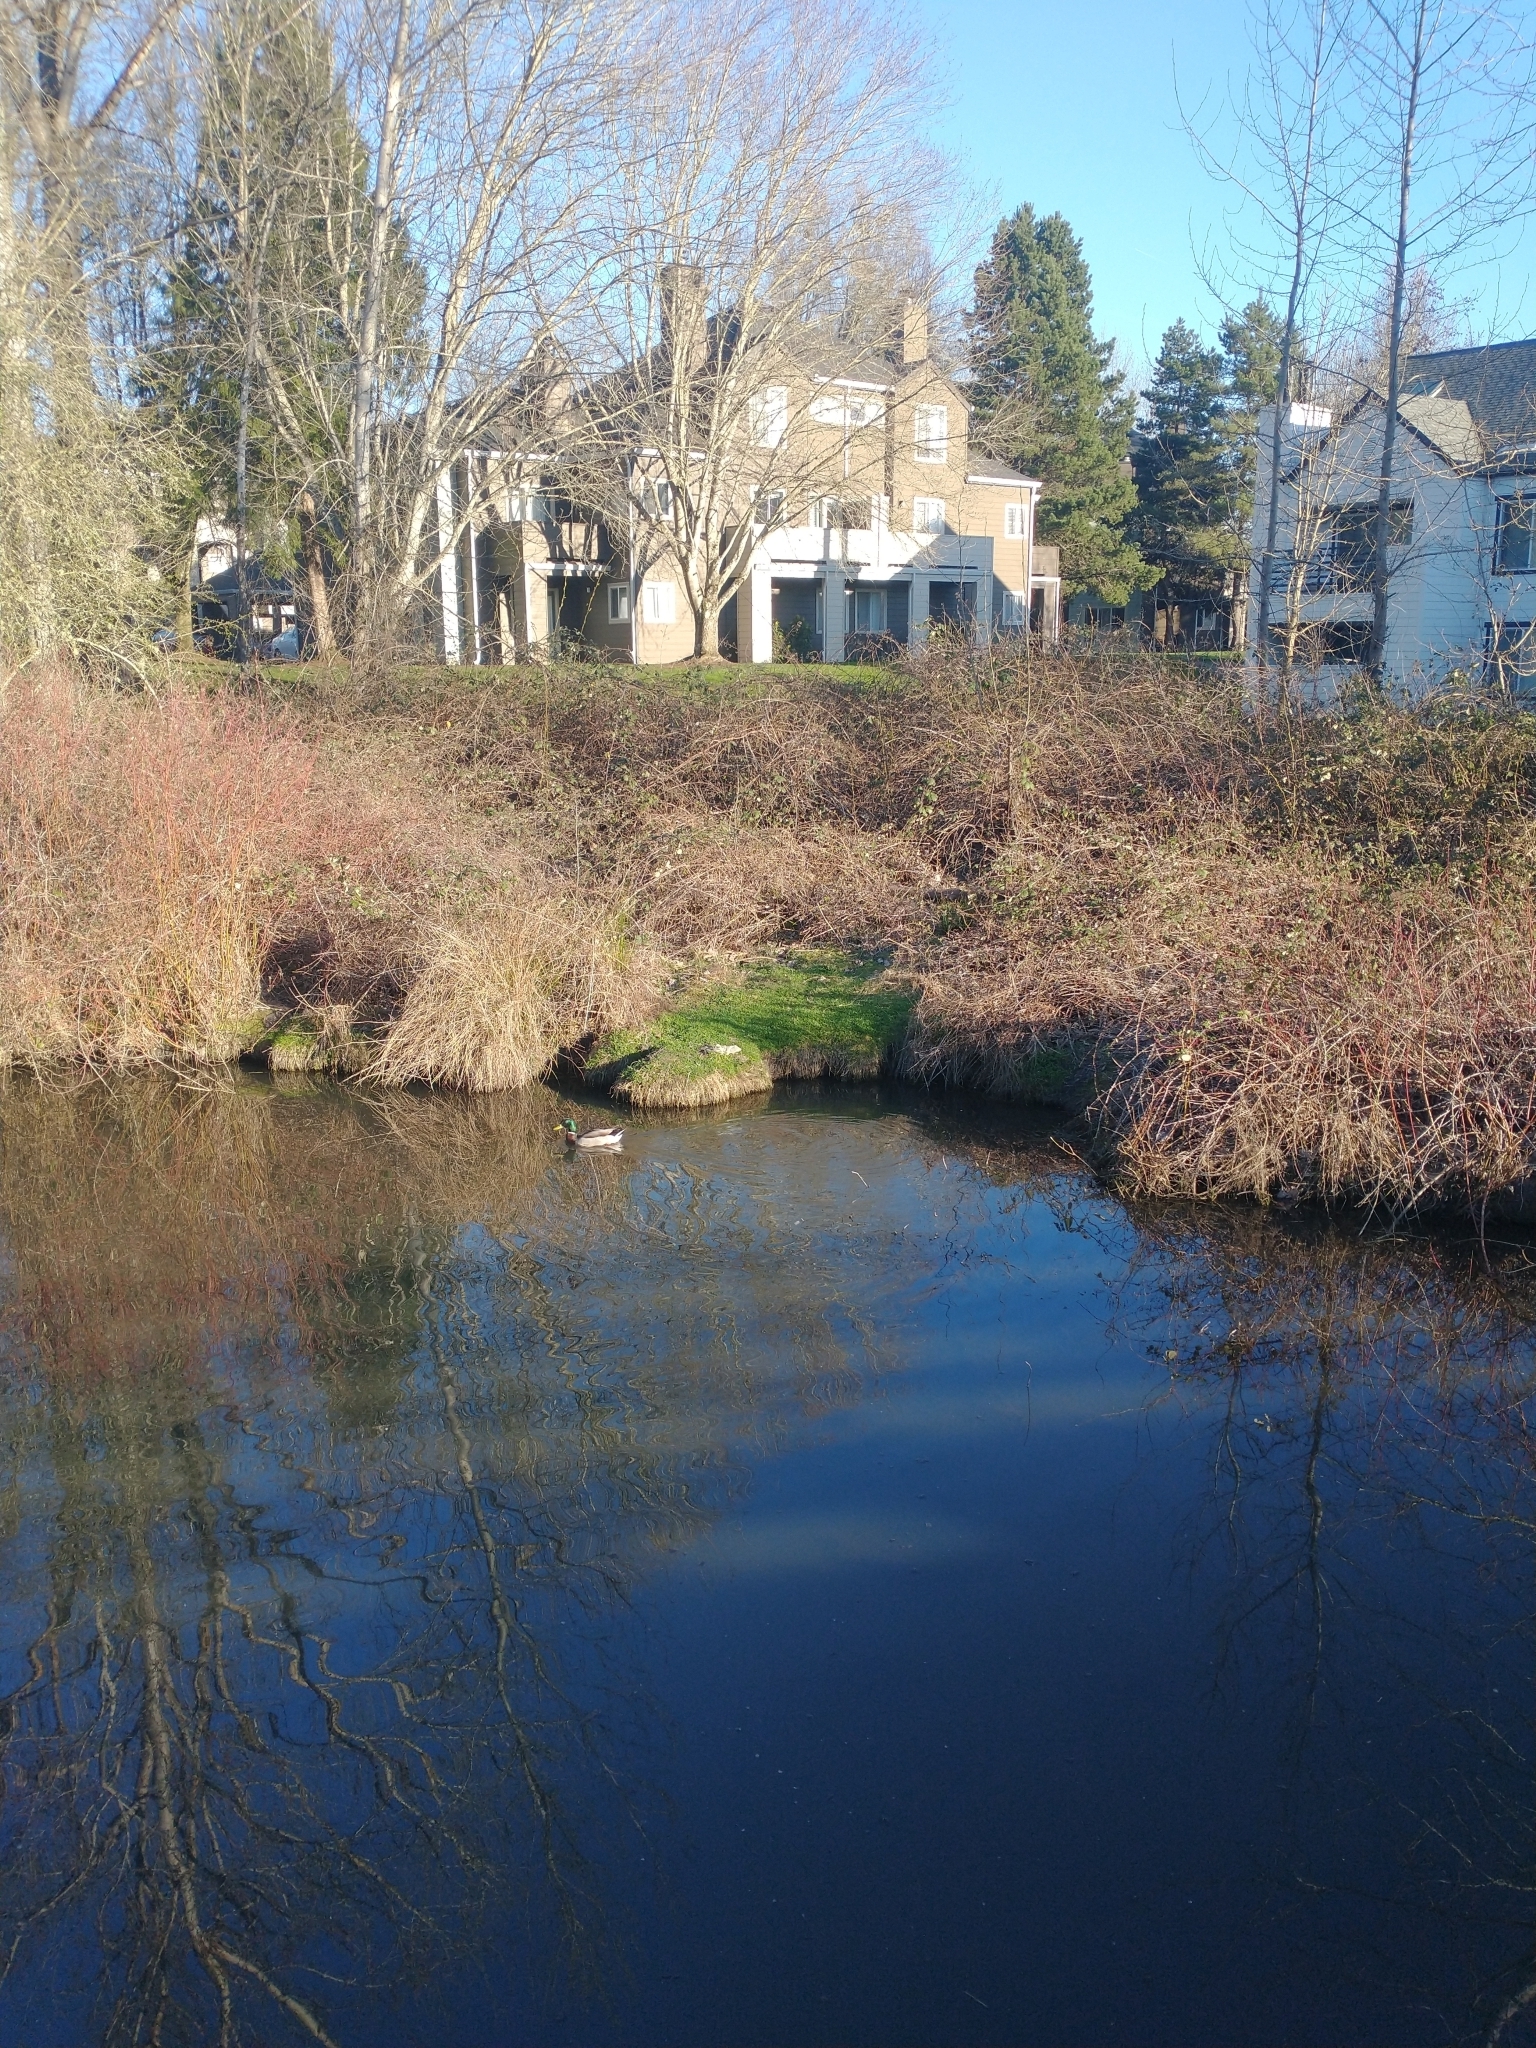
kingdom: Animalia
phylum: Chordata
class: Aves
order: Anseriformes
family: Anatidae
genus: Anas
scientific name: Anas platyrhynchos
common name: Mallard
